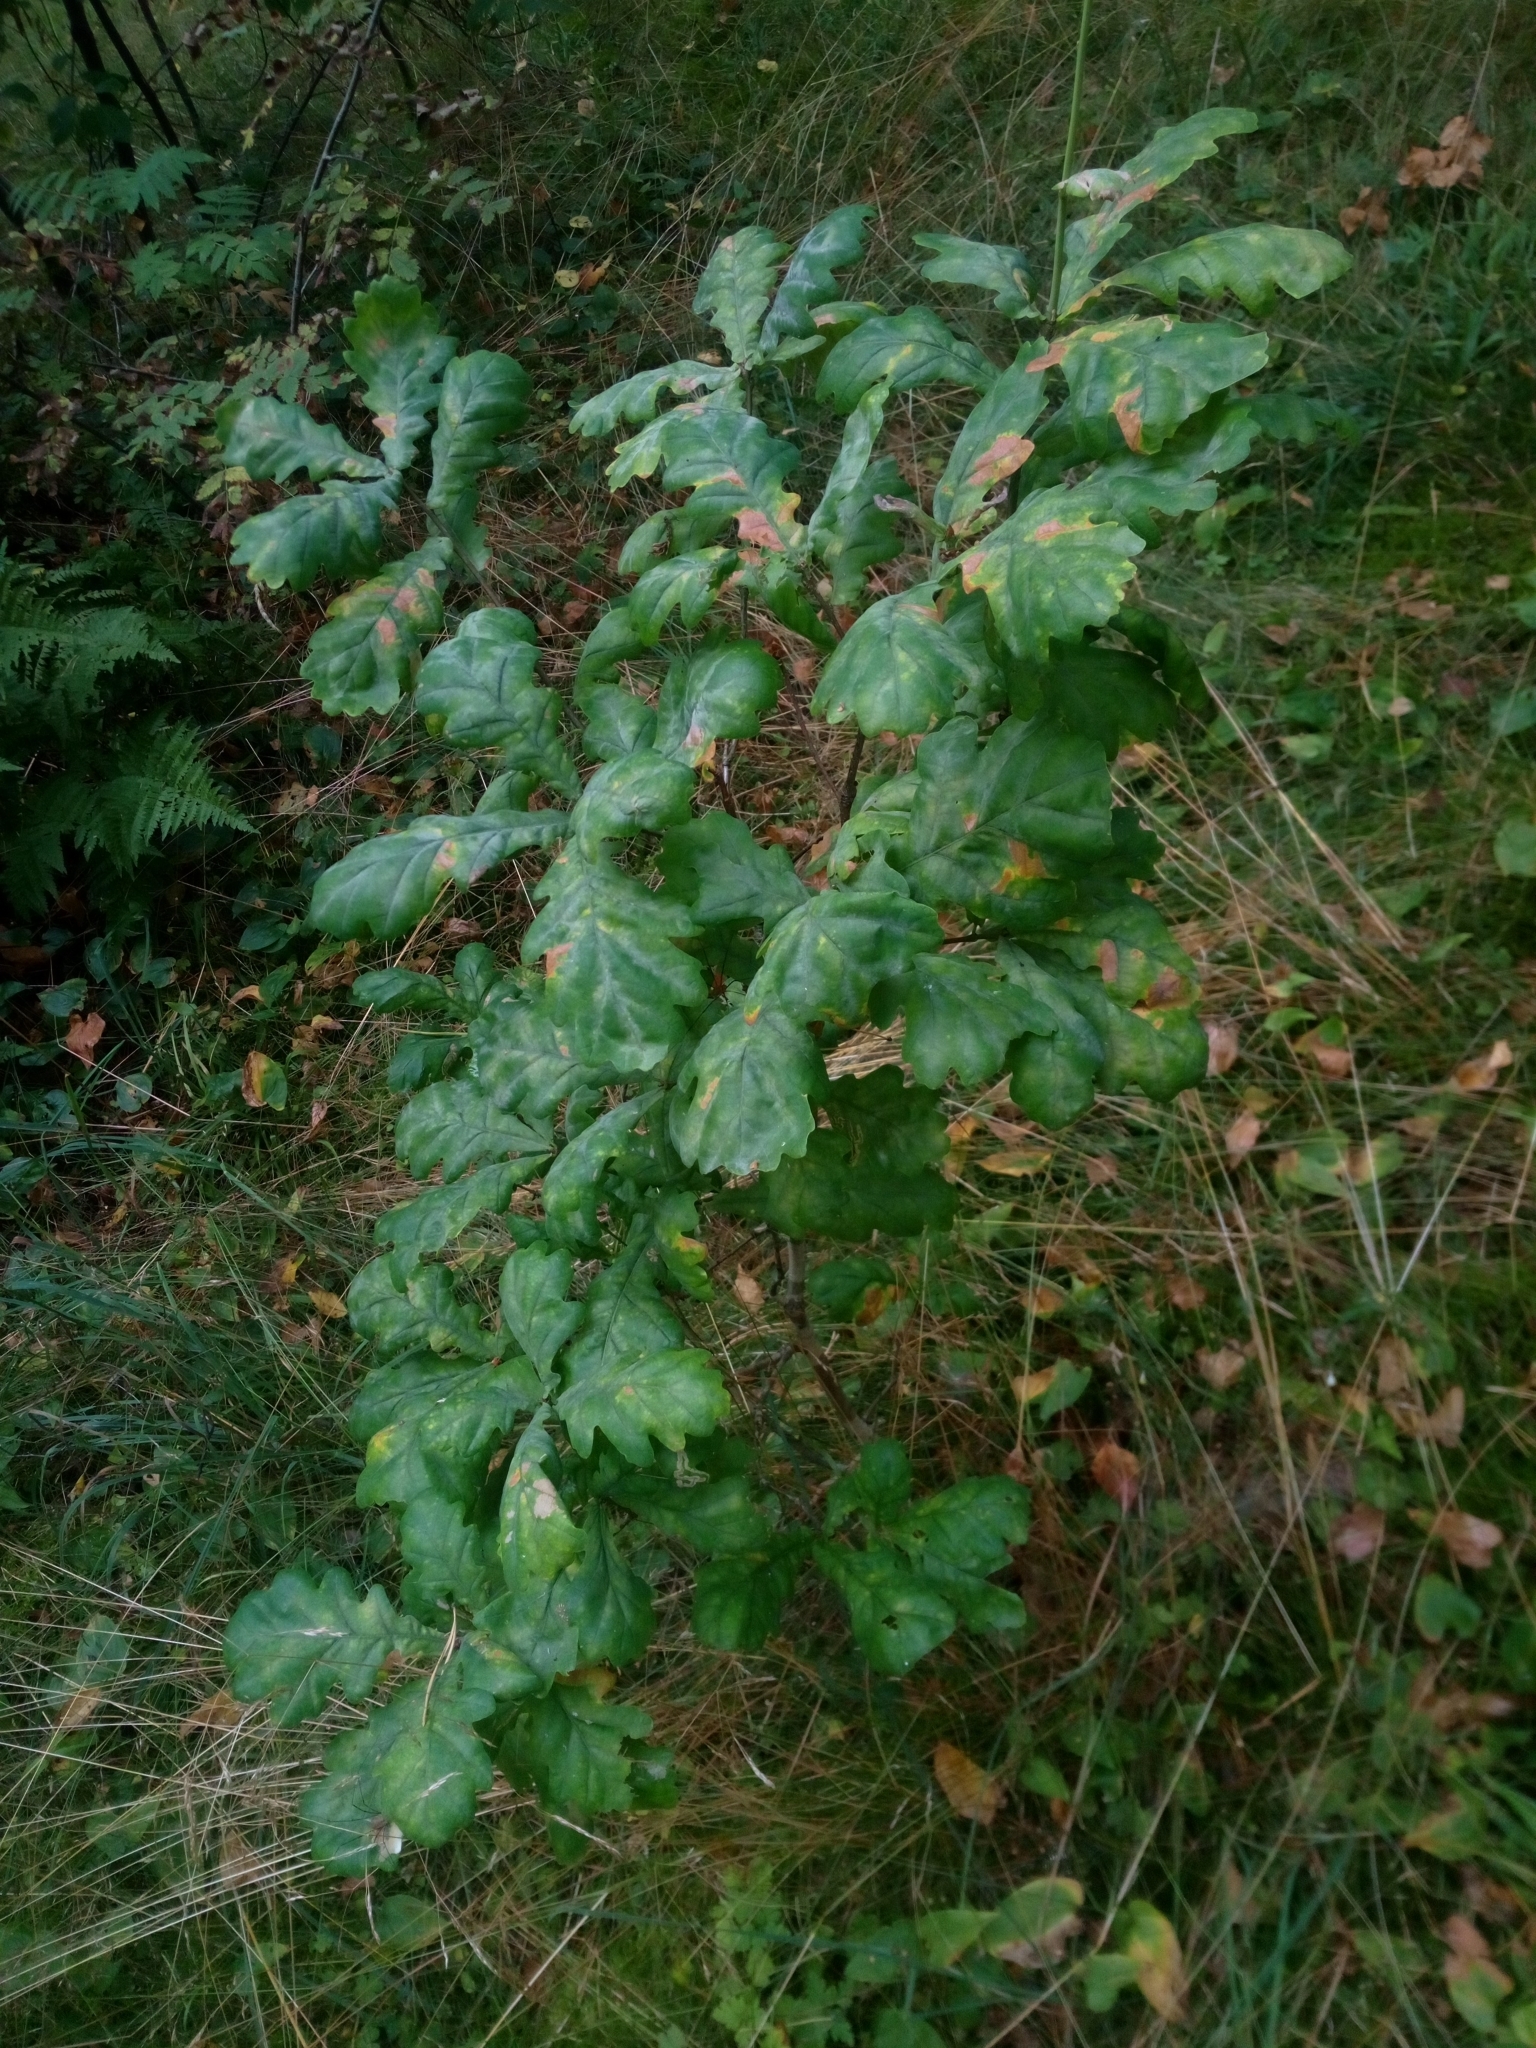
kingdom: Plantae
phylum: Tracheophyta
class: Magnoliopsida
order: Fagales
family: Fagaceae
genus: Quercus
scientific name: Quercus robur
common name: Pedunculate oak
